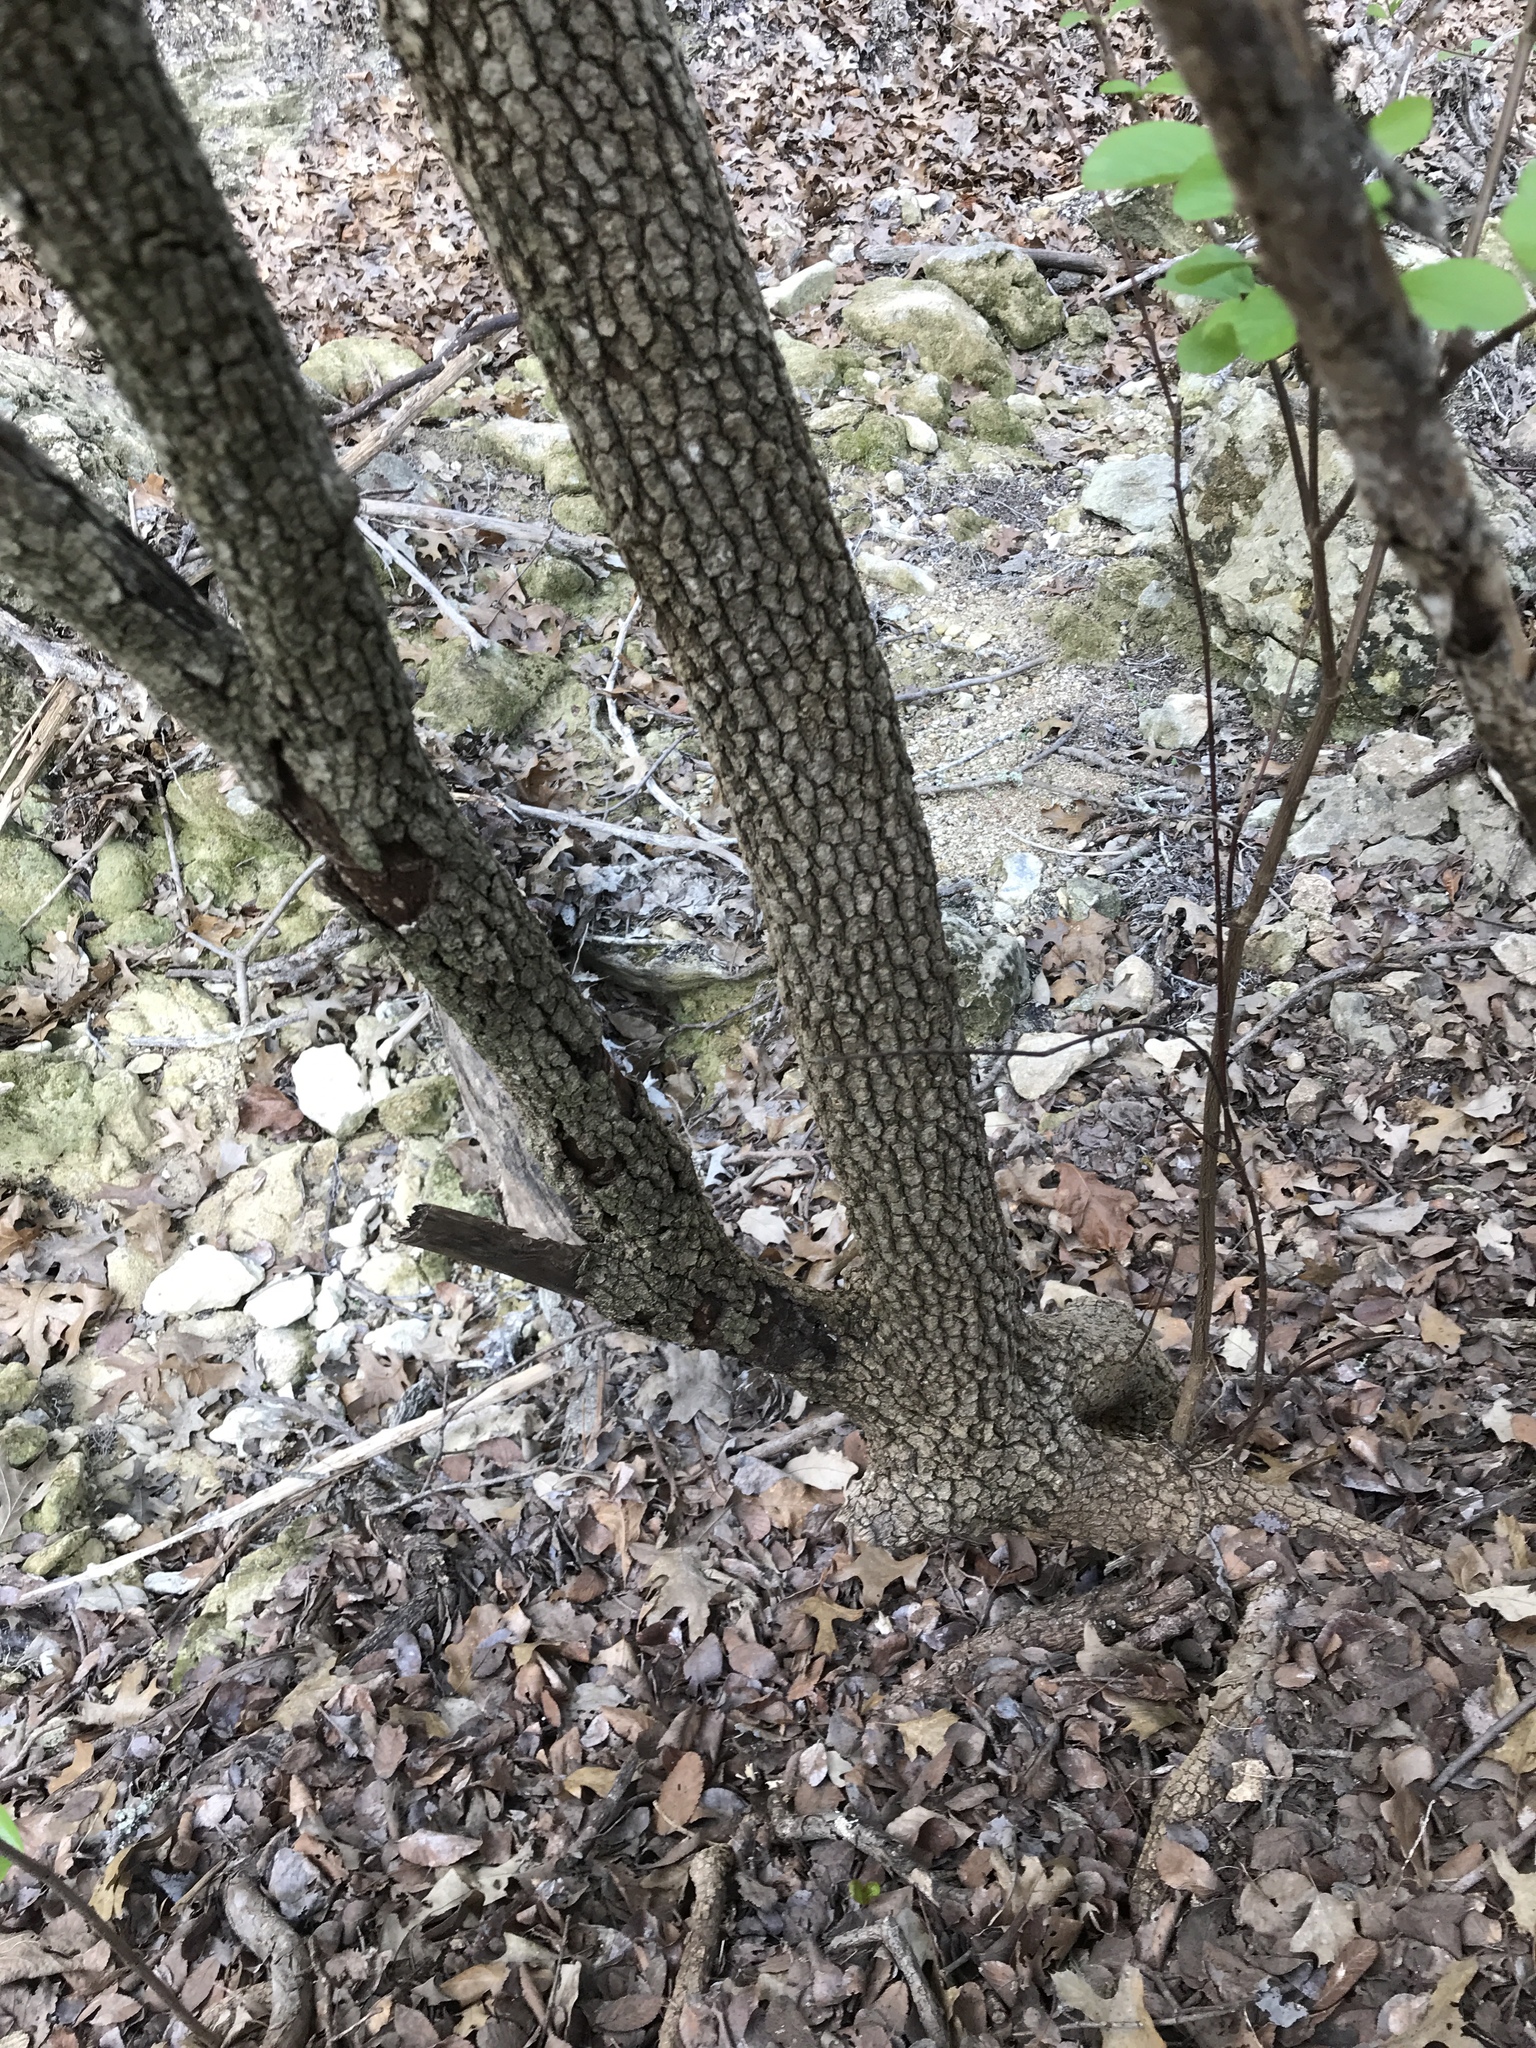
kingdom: Plantae
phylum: Tracheophyta
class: Magnoliopsida
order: Dipsacales
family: Viburnaceae
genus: Viburnum
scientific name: Viburnum rufidulum
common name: Blue haw
